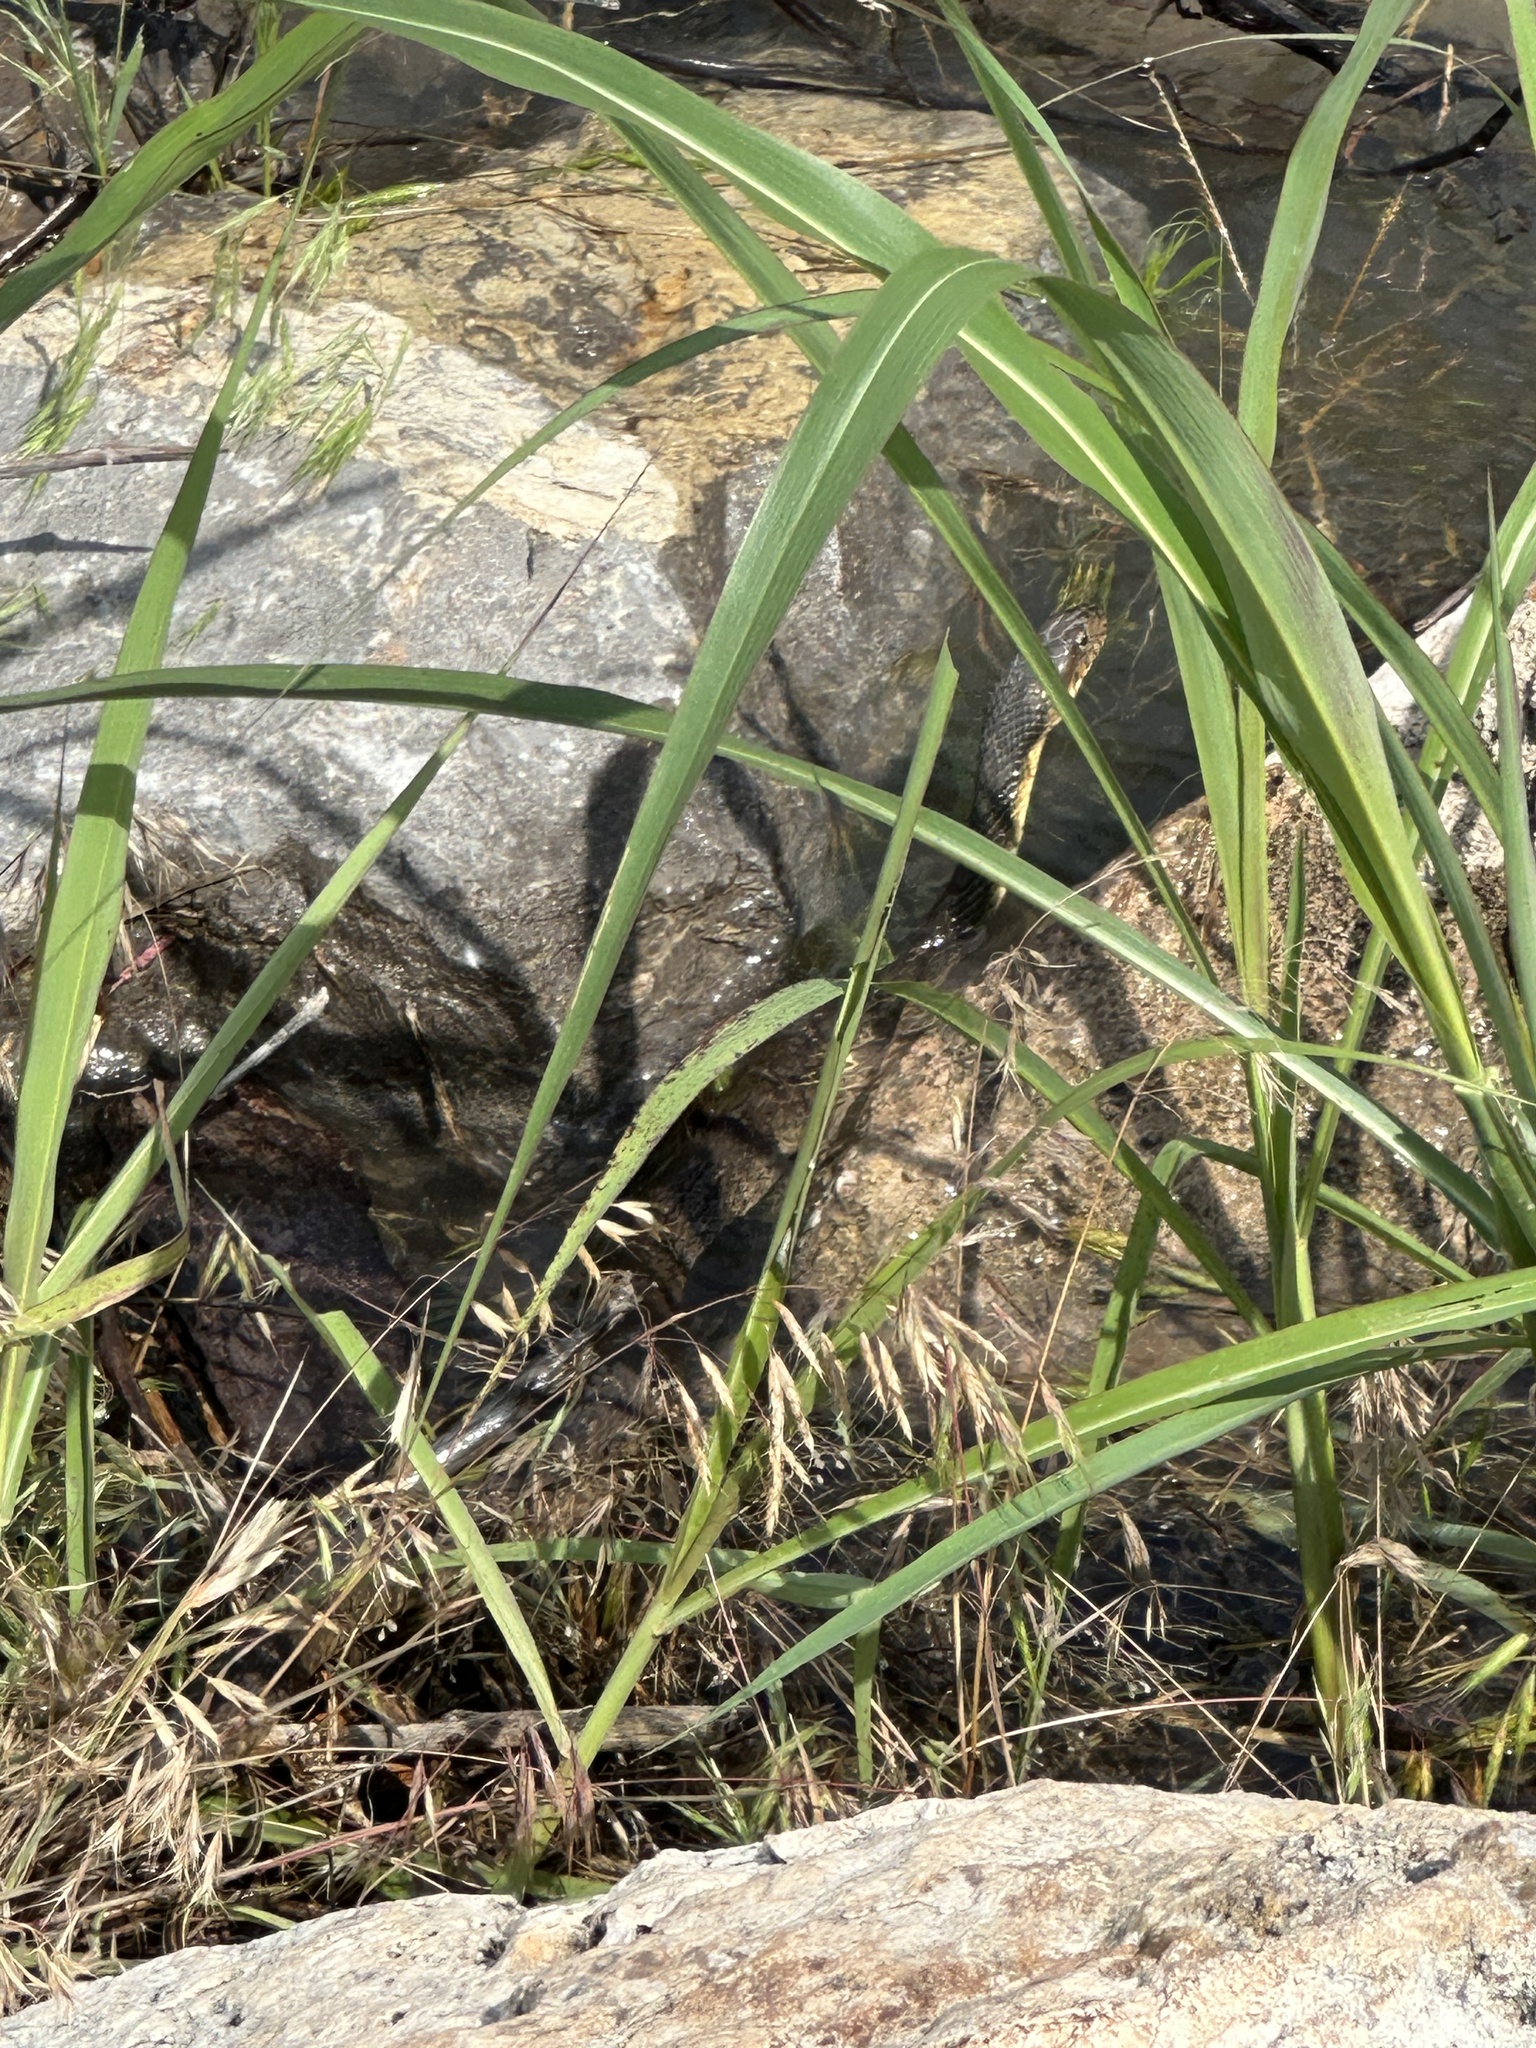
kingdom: Animalia
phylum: Chordata
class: Squamata
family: Colubridae
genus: Nerodia
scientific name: Nerodia erythrogaster
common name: Plainbelly water snake
